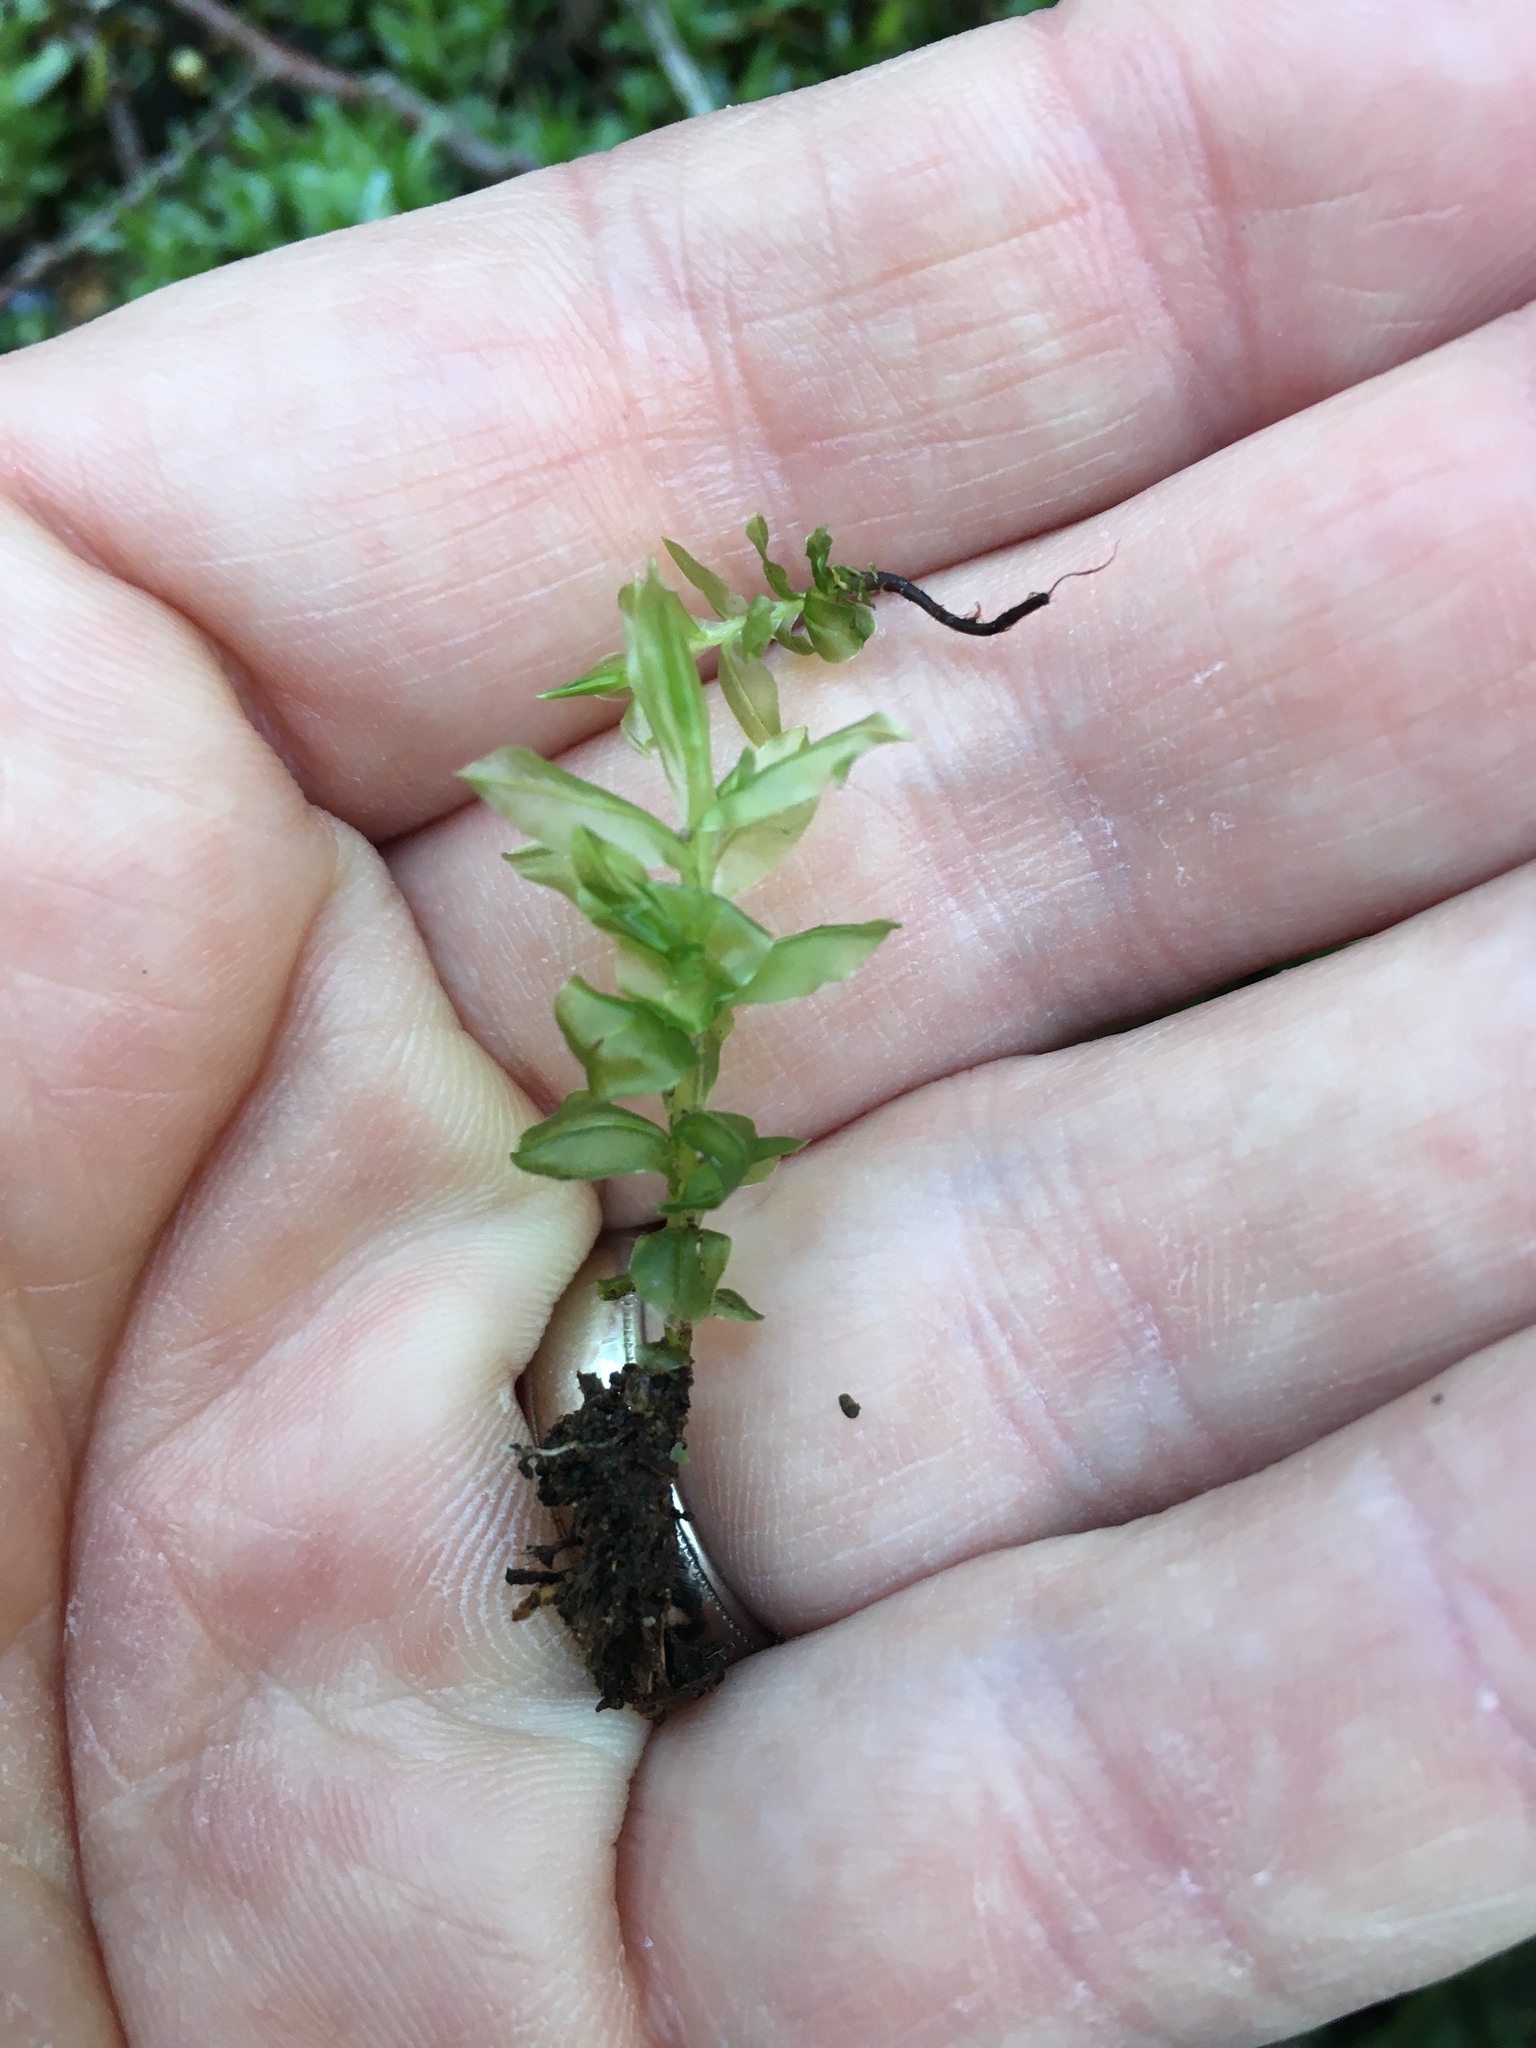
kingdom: Plantae
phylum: Bryophyta
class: Bryopsida
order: Bryales
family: Mniaceae
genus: Plagiomnium
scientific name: Plagiomnium insigne
